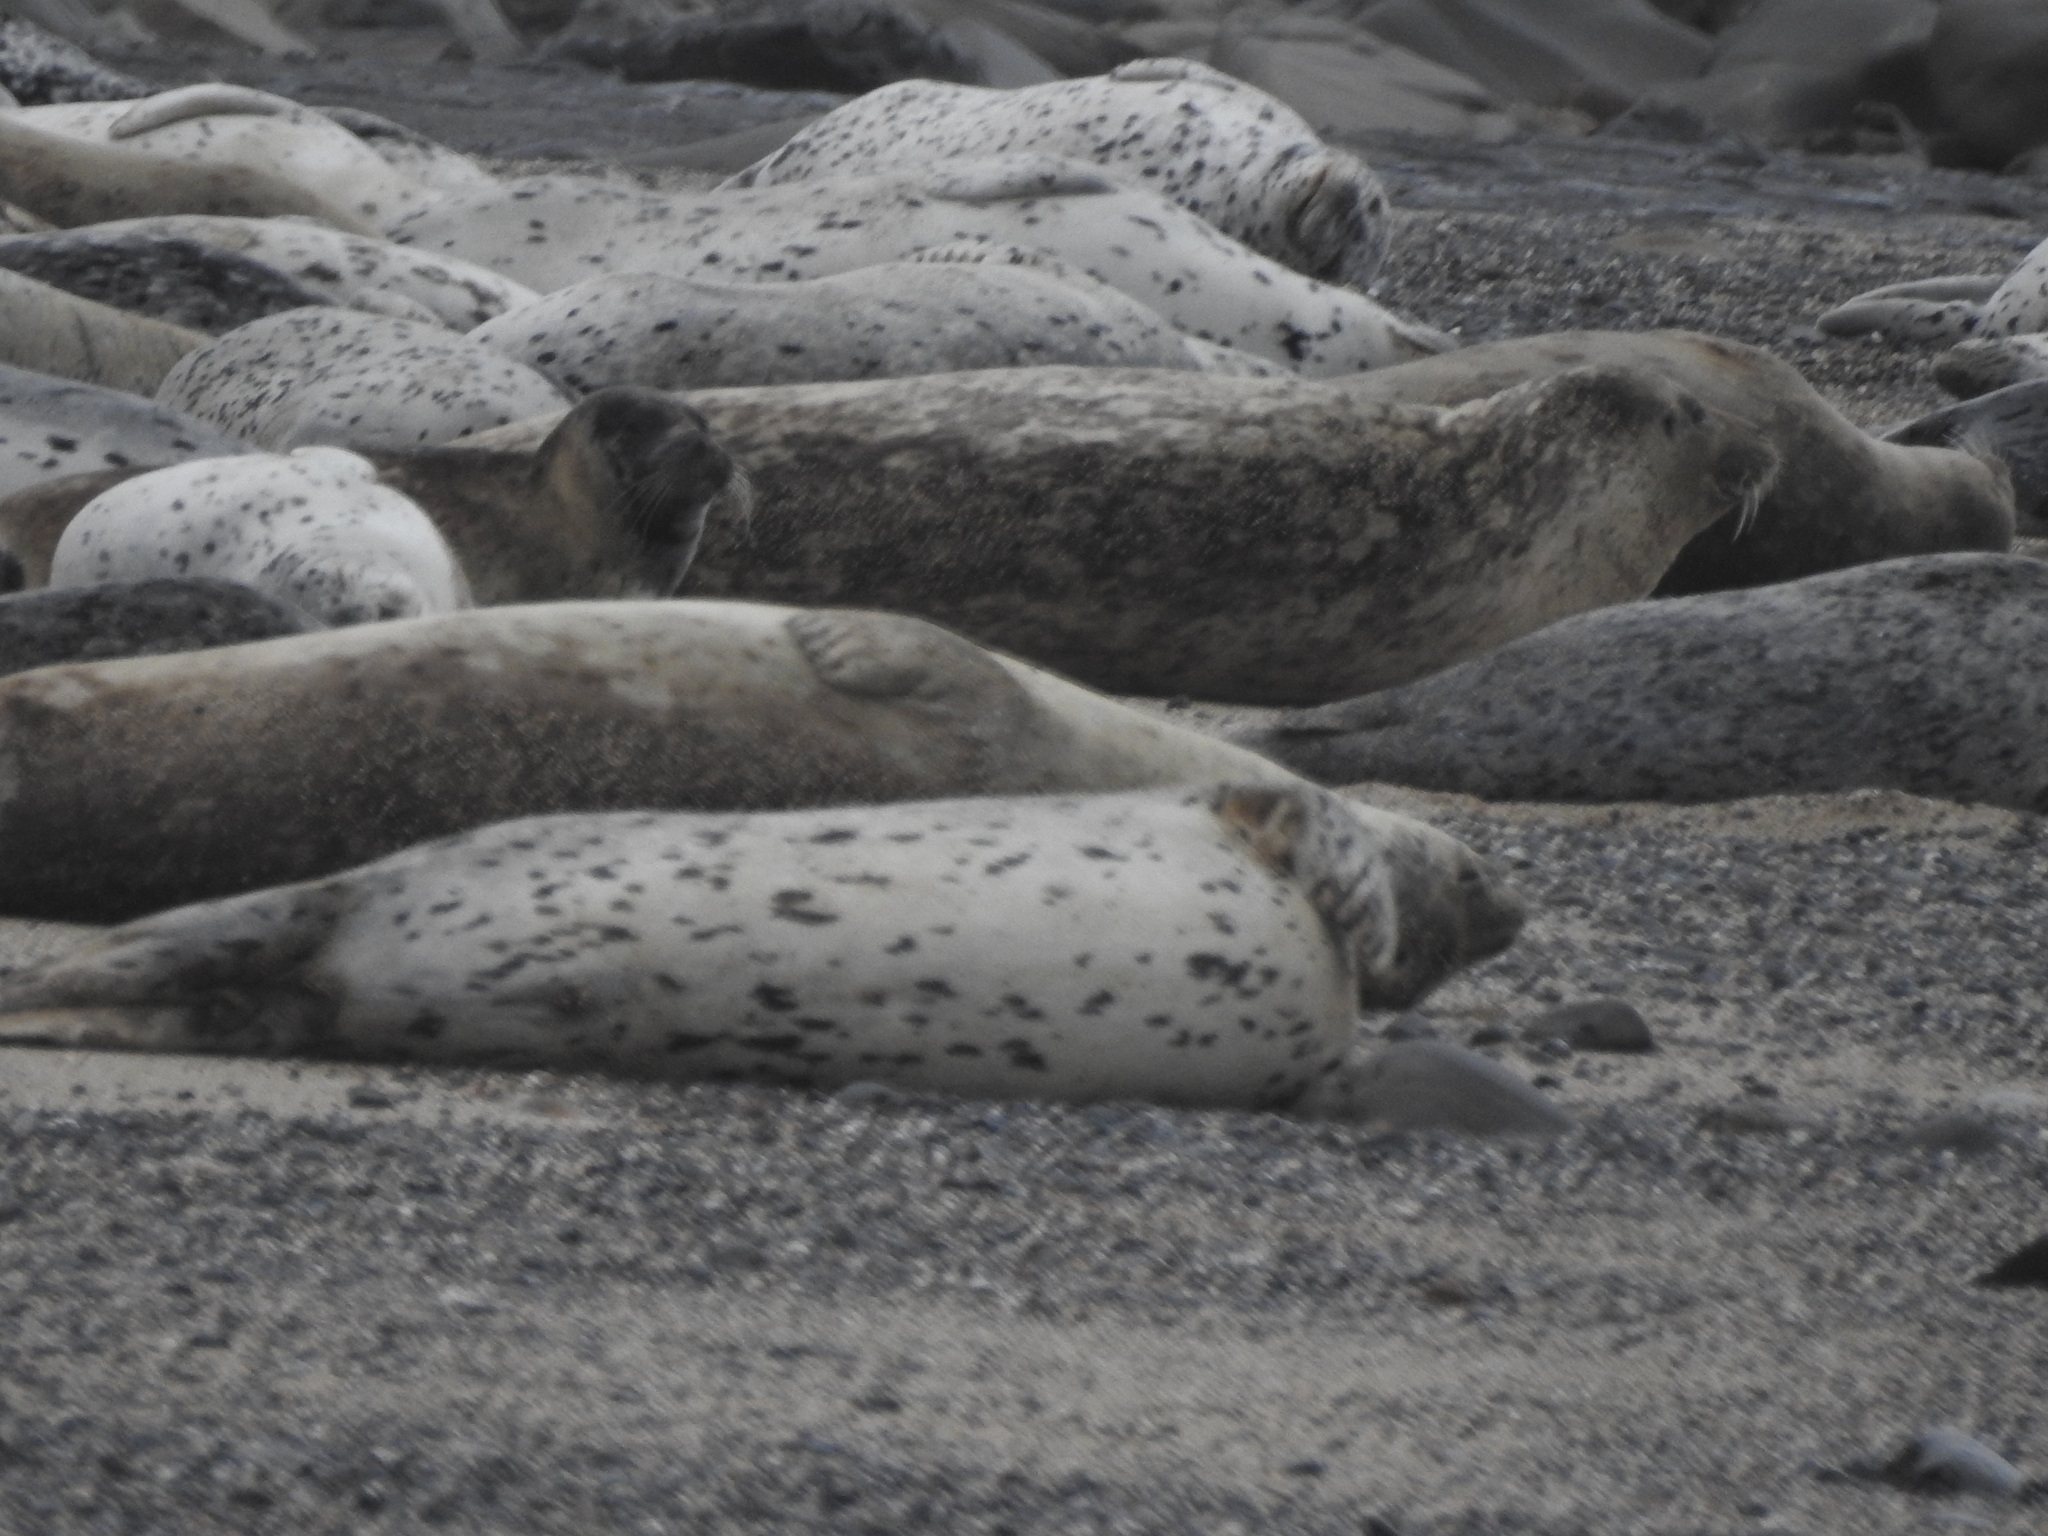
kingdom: Animalia
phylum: Chordata
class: Mammalia
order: Carnivora
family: Phocidae
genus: Phoca
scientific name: Phoca vitulina
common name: Harbor seal
